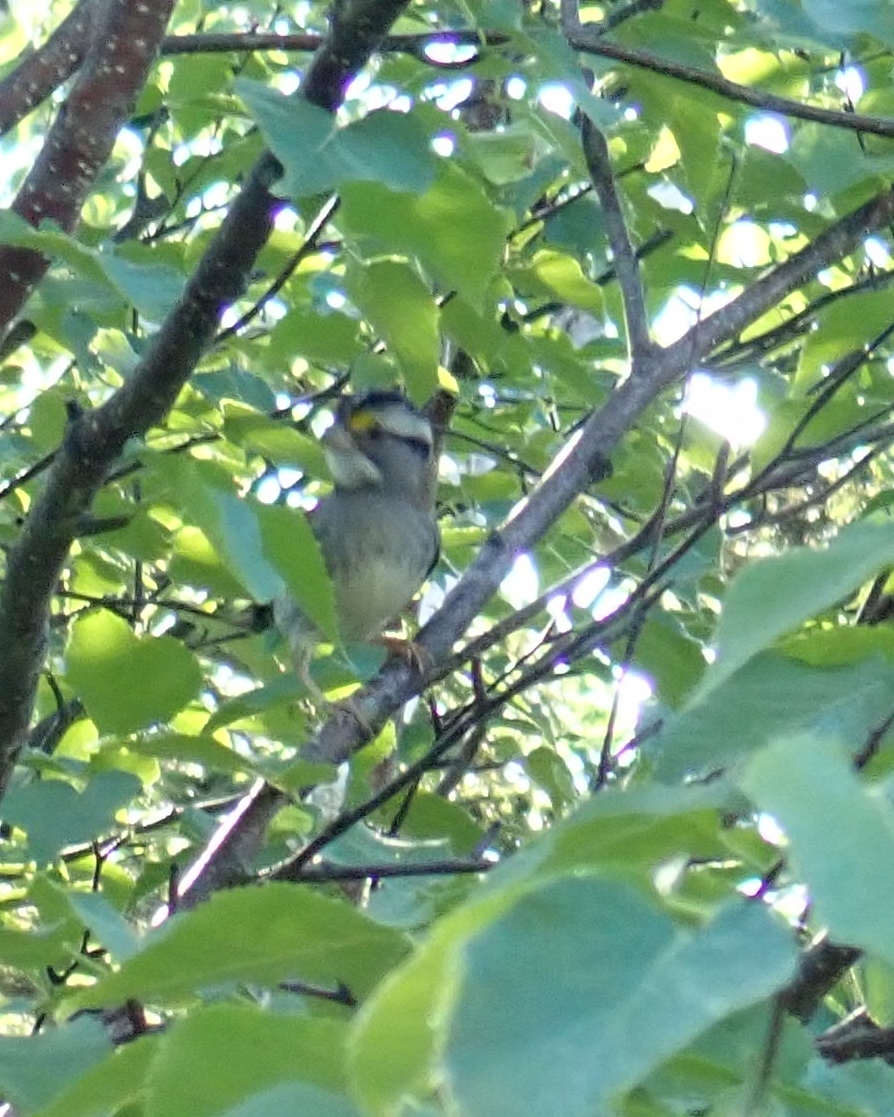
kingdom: Animalia
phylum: Chordata
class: Aves
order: Passeriformes
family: Passerellidae
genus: Zonotrichia
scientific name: Zonotrichia albicollis
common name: White-throated sparrow
